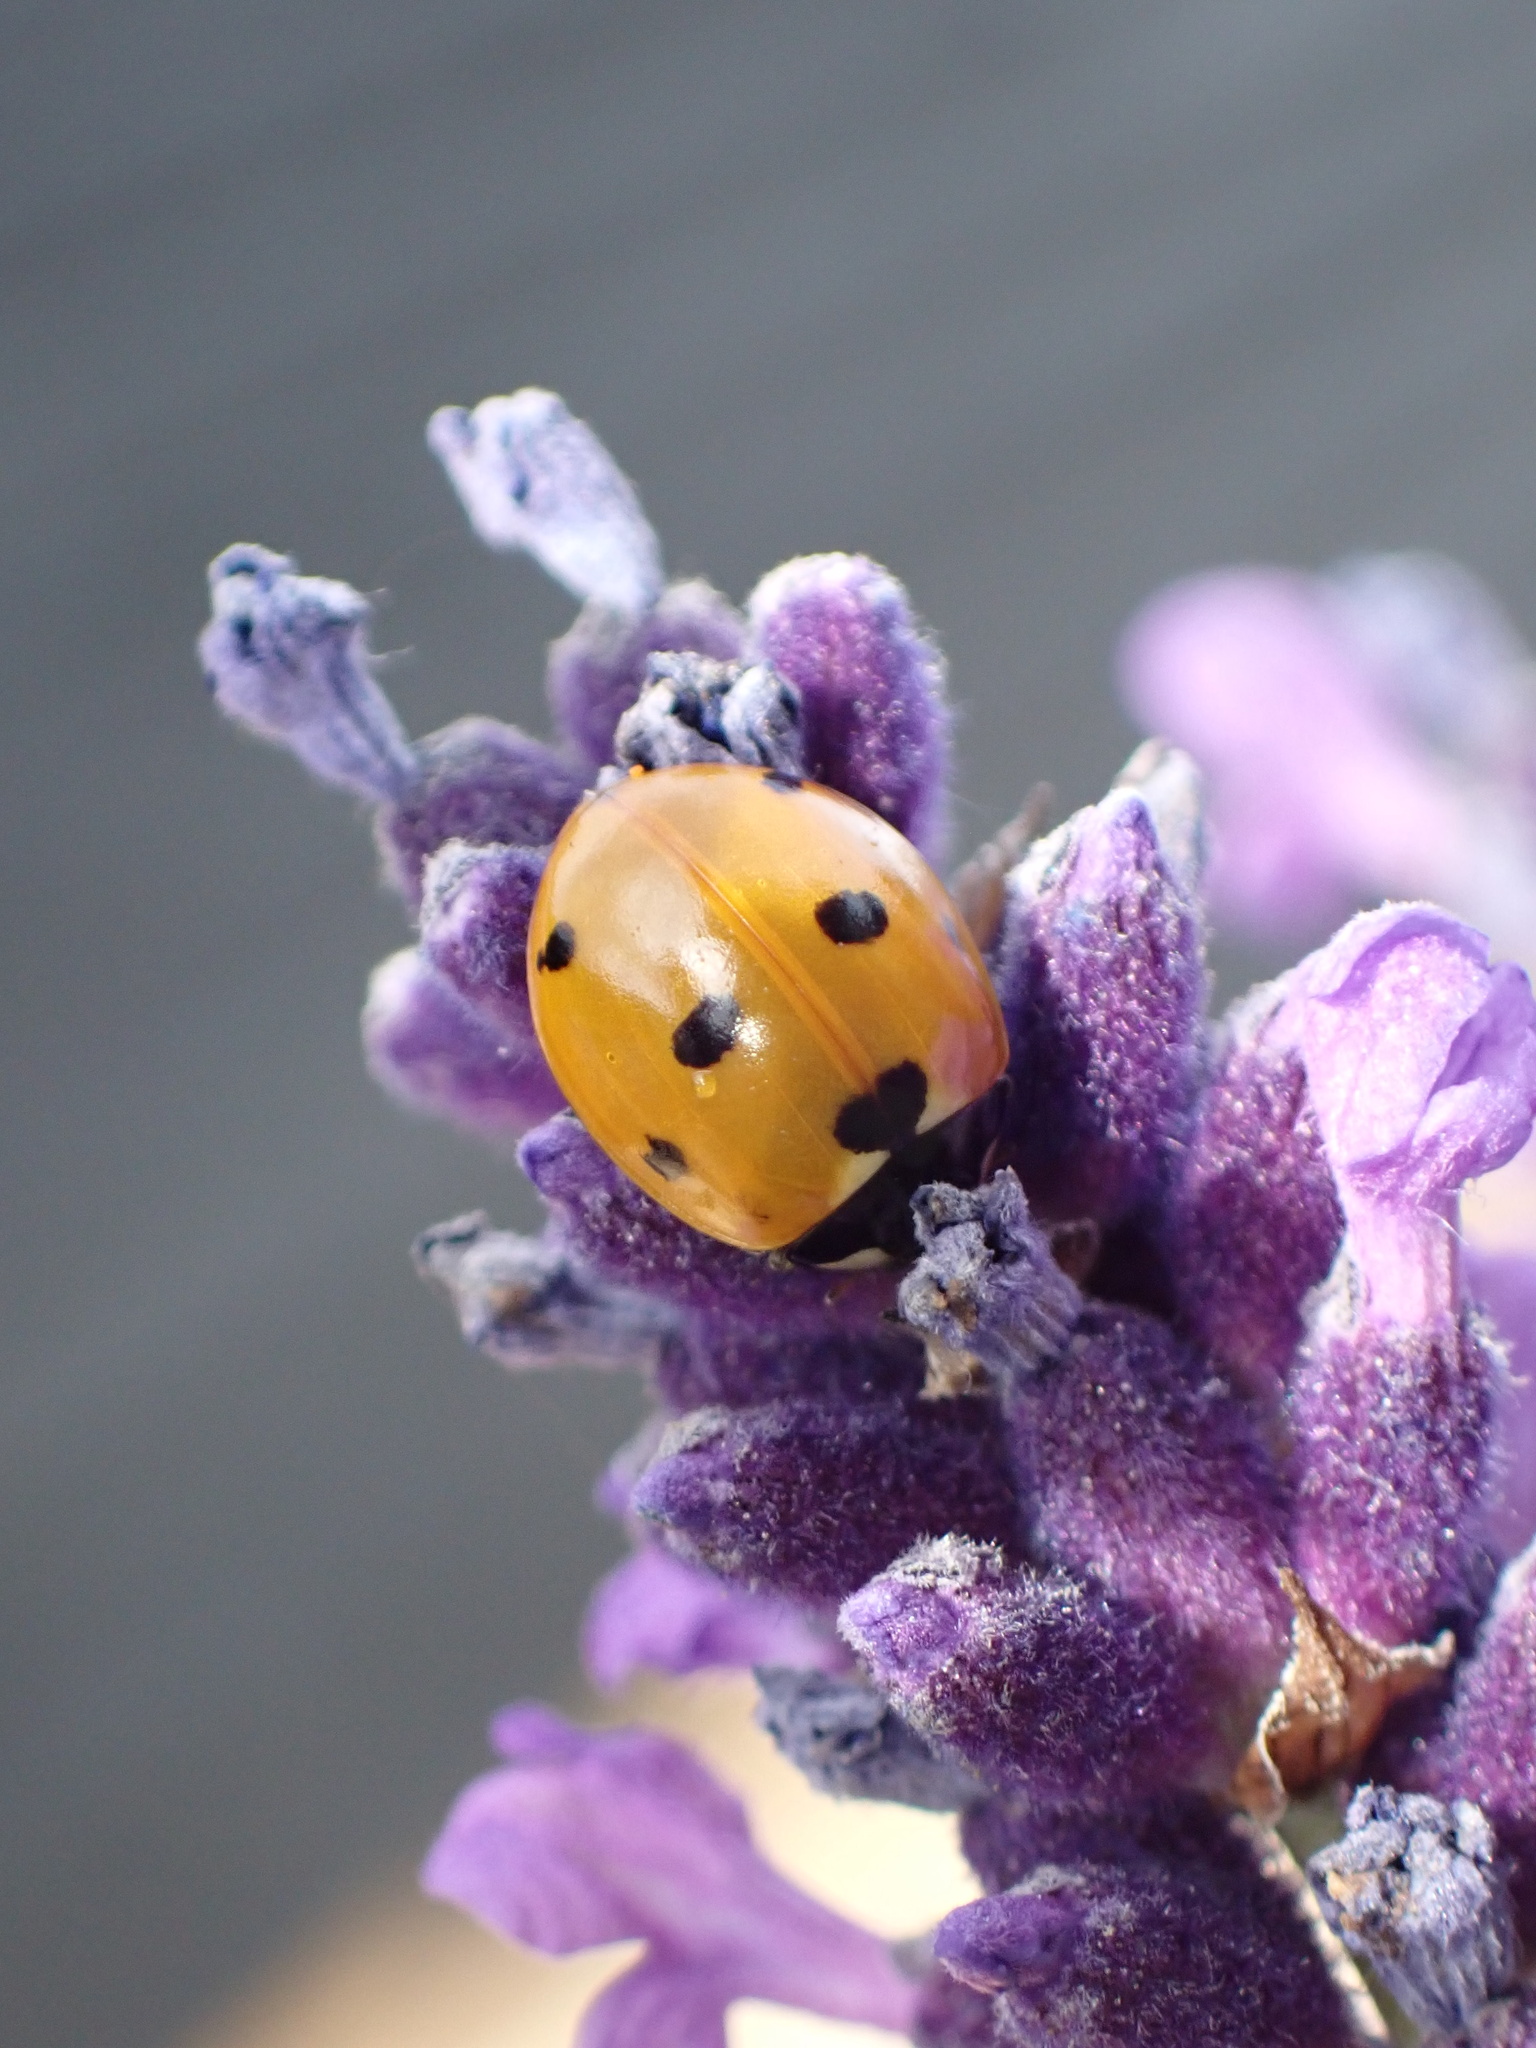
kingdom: Animalia
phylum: Arthropoda
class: Insecta
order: Coleoptera
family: Coccinellidae
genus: Coccinella
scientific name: Coccinella septempunctata
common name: Sevenspotted lady beetle
